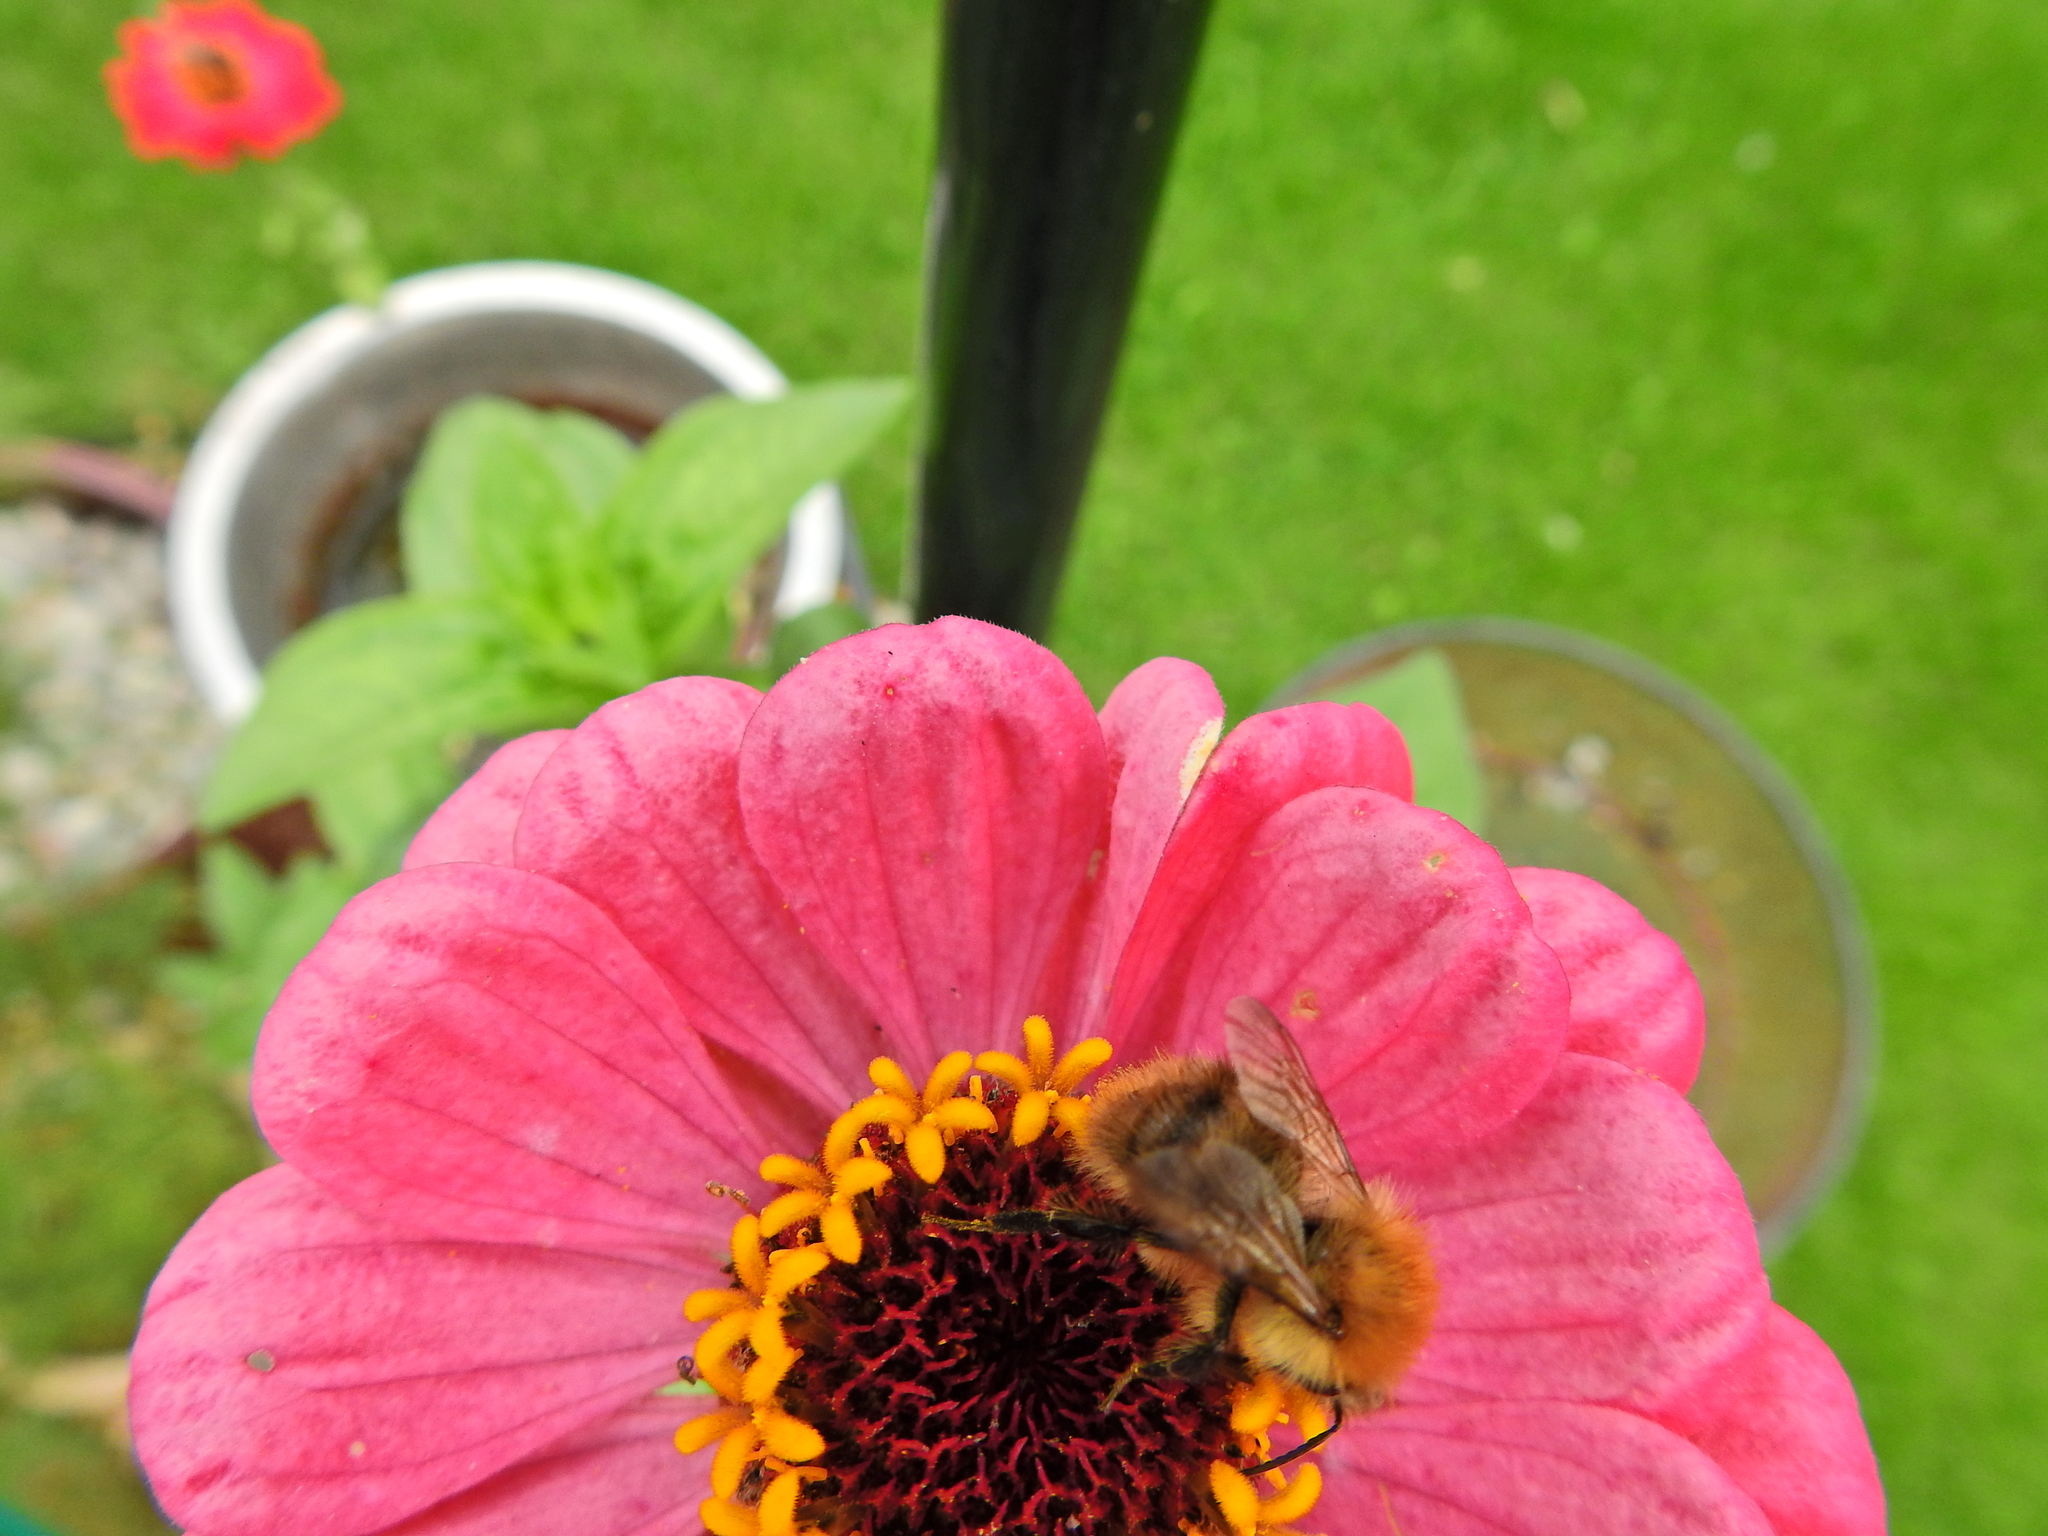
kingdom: Animalia
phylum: Arthropoda
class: Insecta
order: Hymenoptera
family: Apidae
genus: Bombus
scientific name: Bombus pascuorum
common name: Common carder bee
